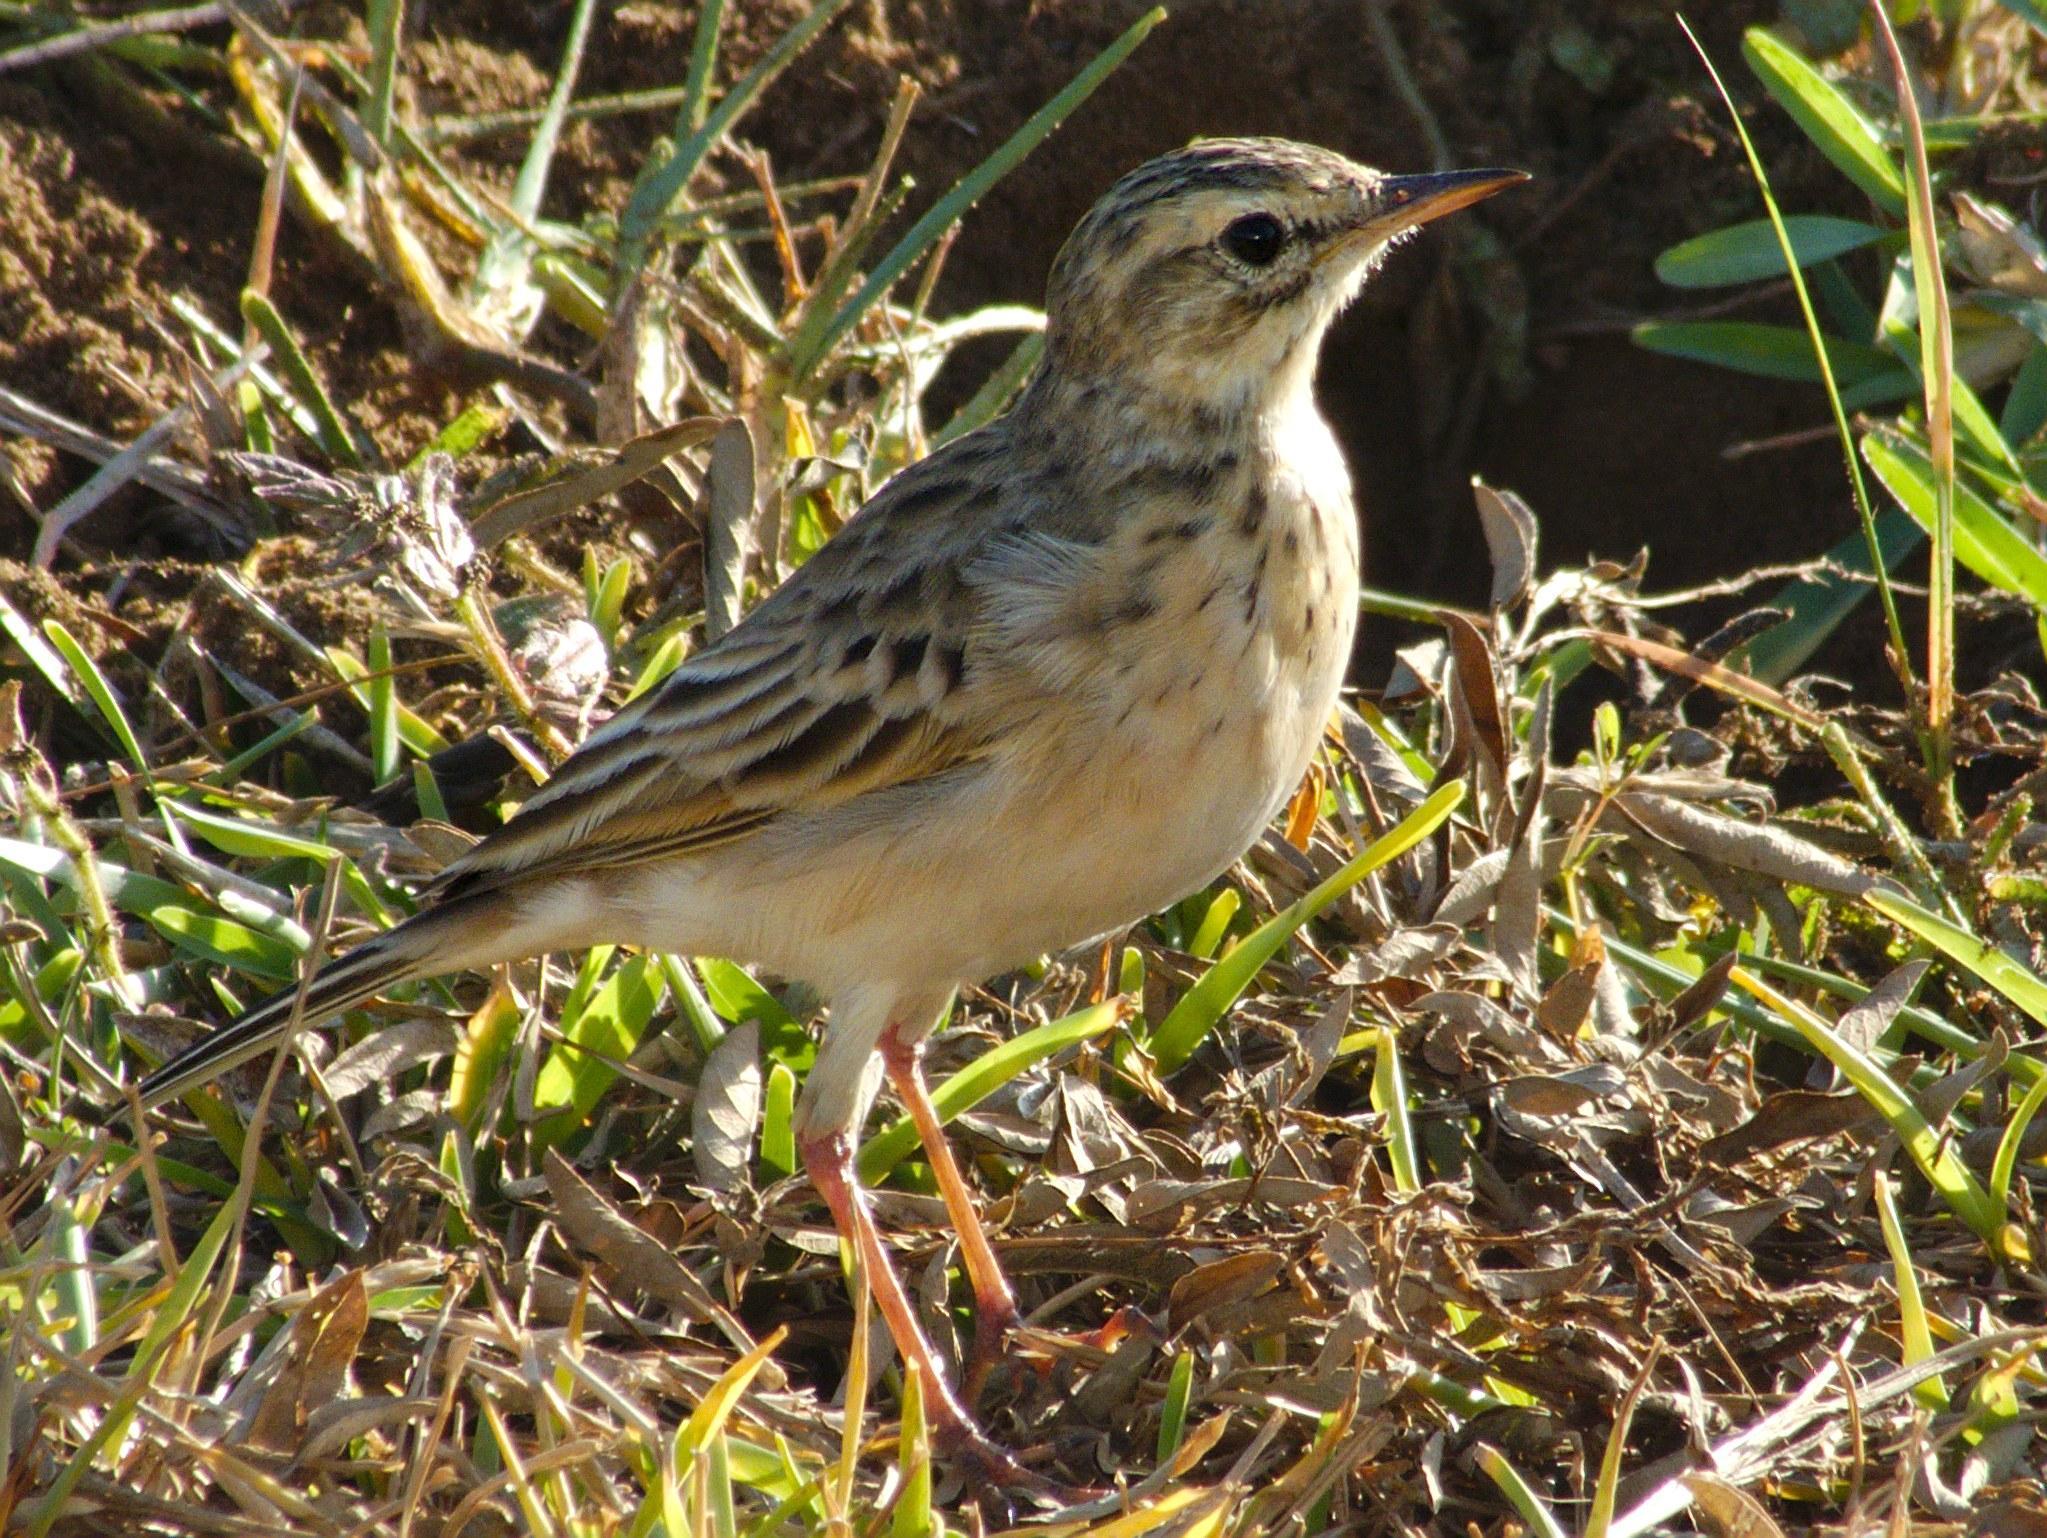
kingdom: Animalia
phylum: Chordata
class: Aves
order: Passeriformes
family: Motacillidae
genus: Anthus
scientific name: Anthus cinnamomeus
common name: African pipit
